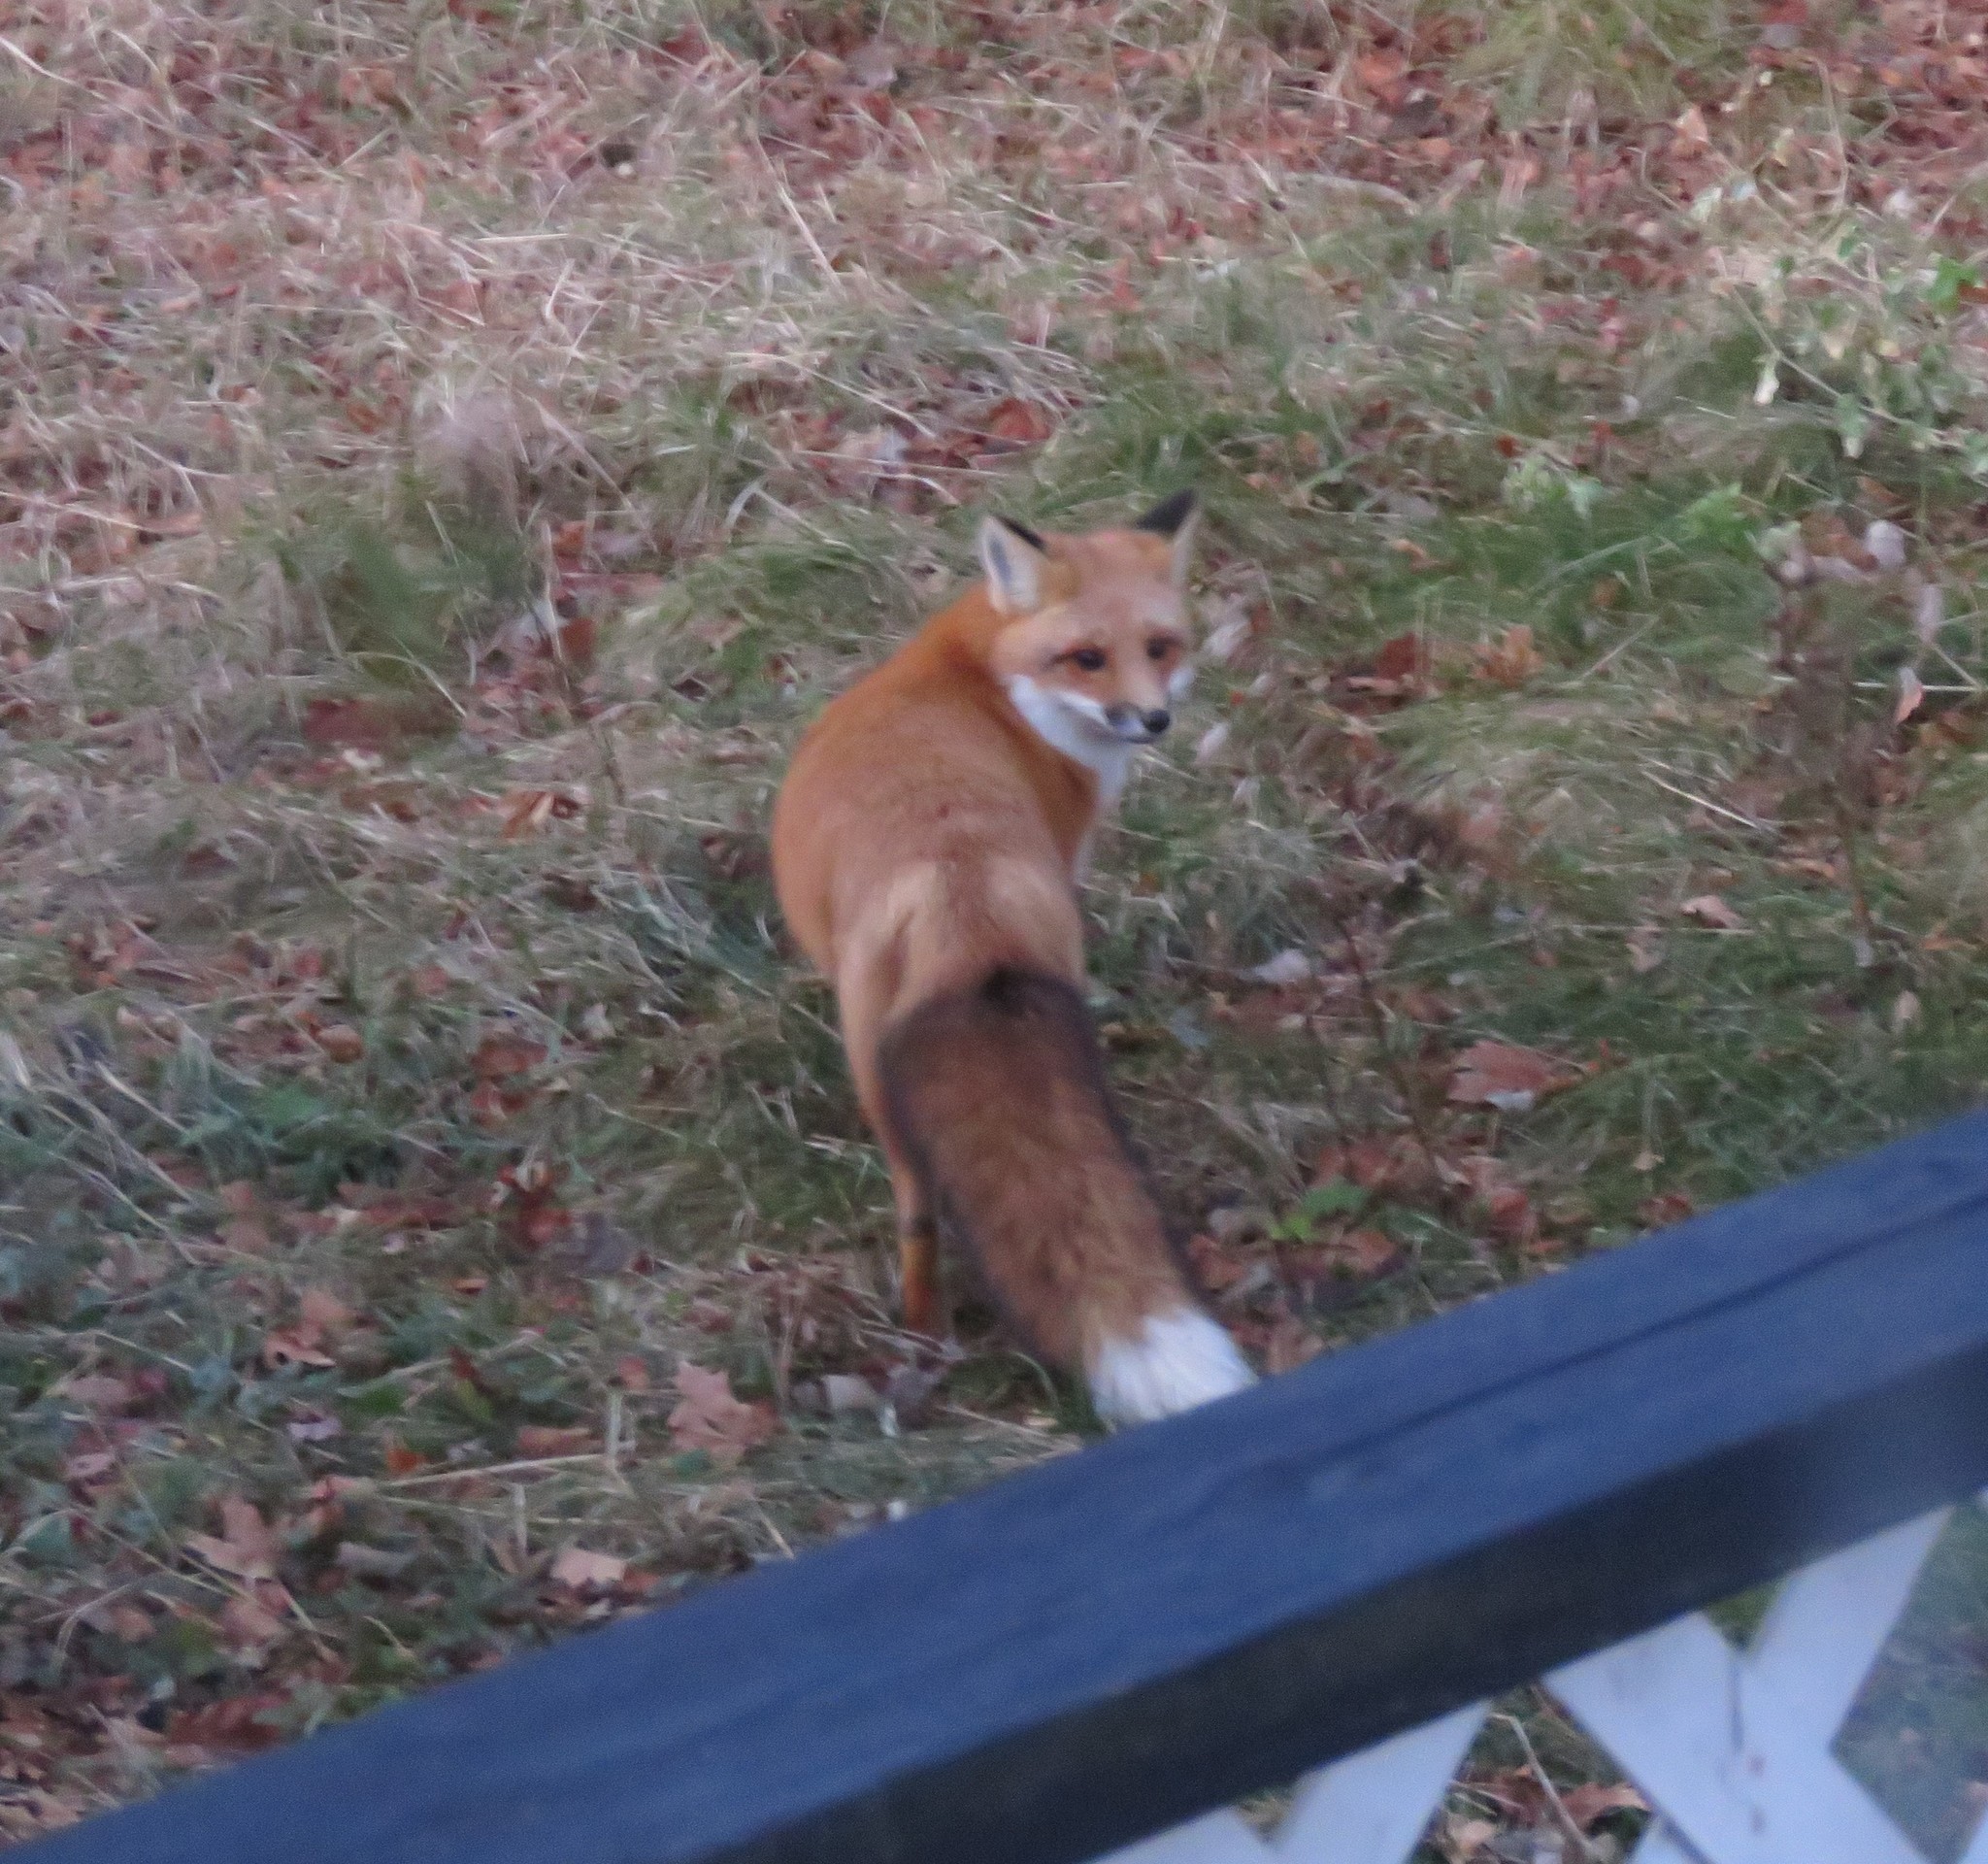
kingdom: Animalia
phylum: Chordata
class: Mammalia
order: Carnivora
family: Canidae
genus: Vulpes
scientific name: Vulpes vulpes
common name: Red fox
